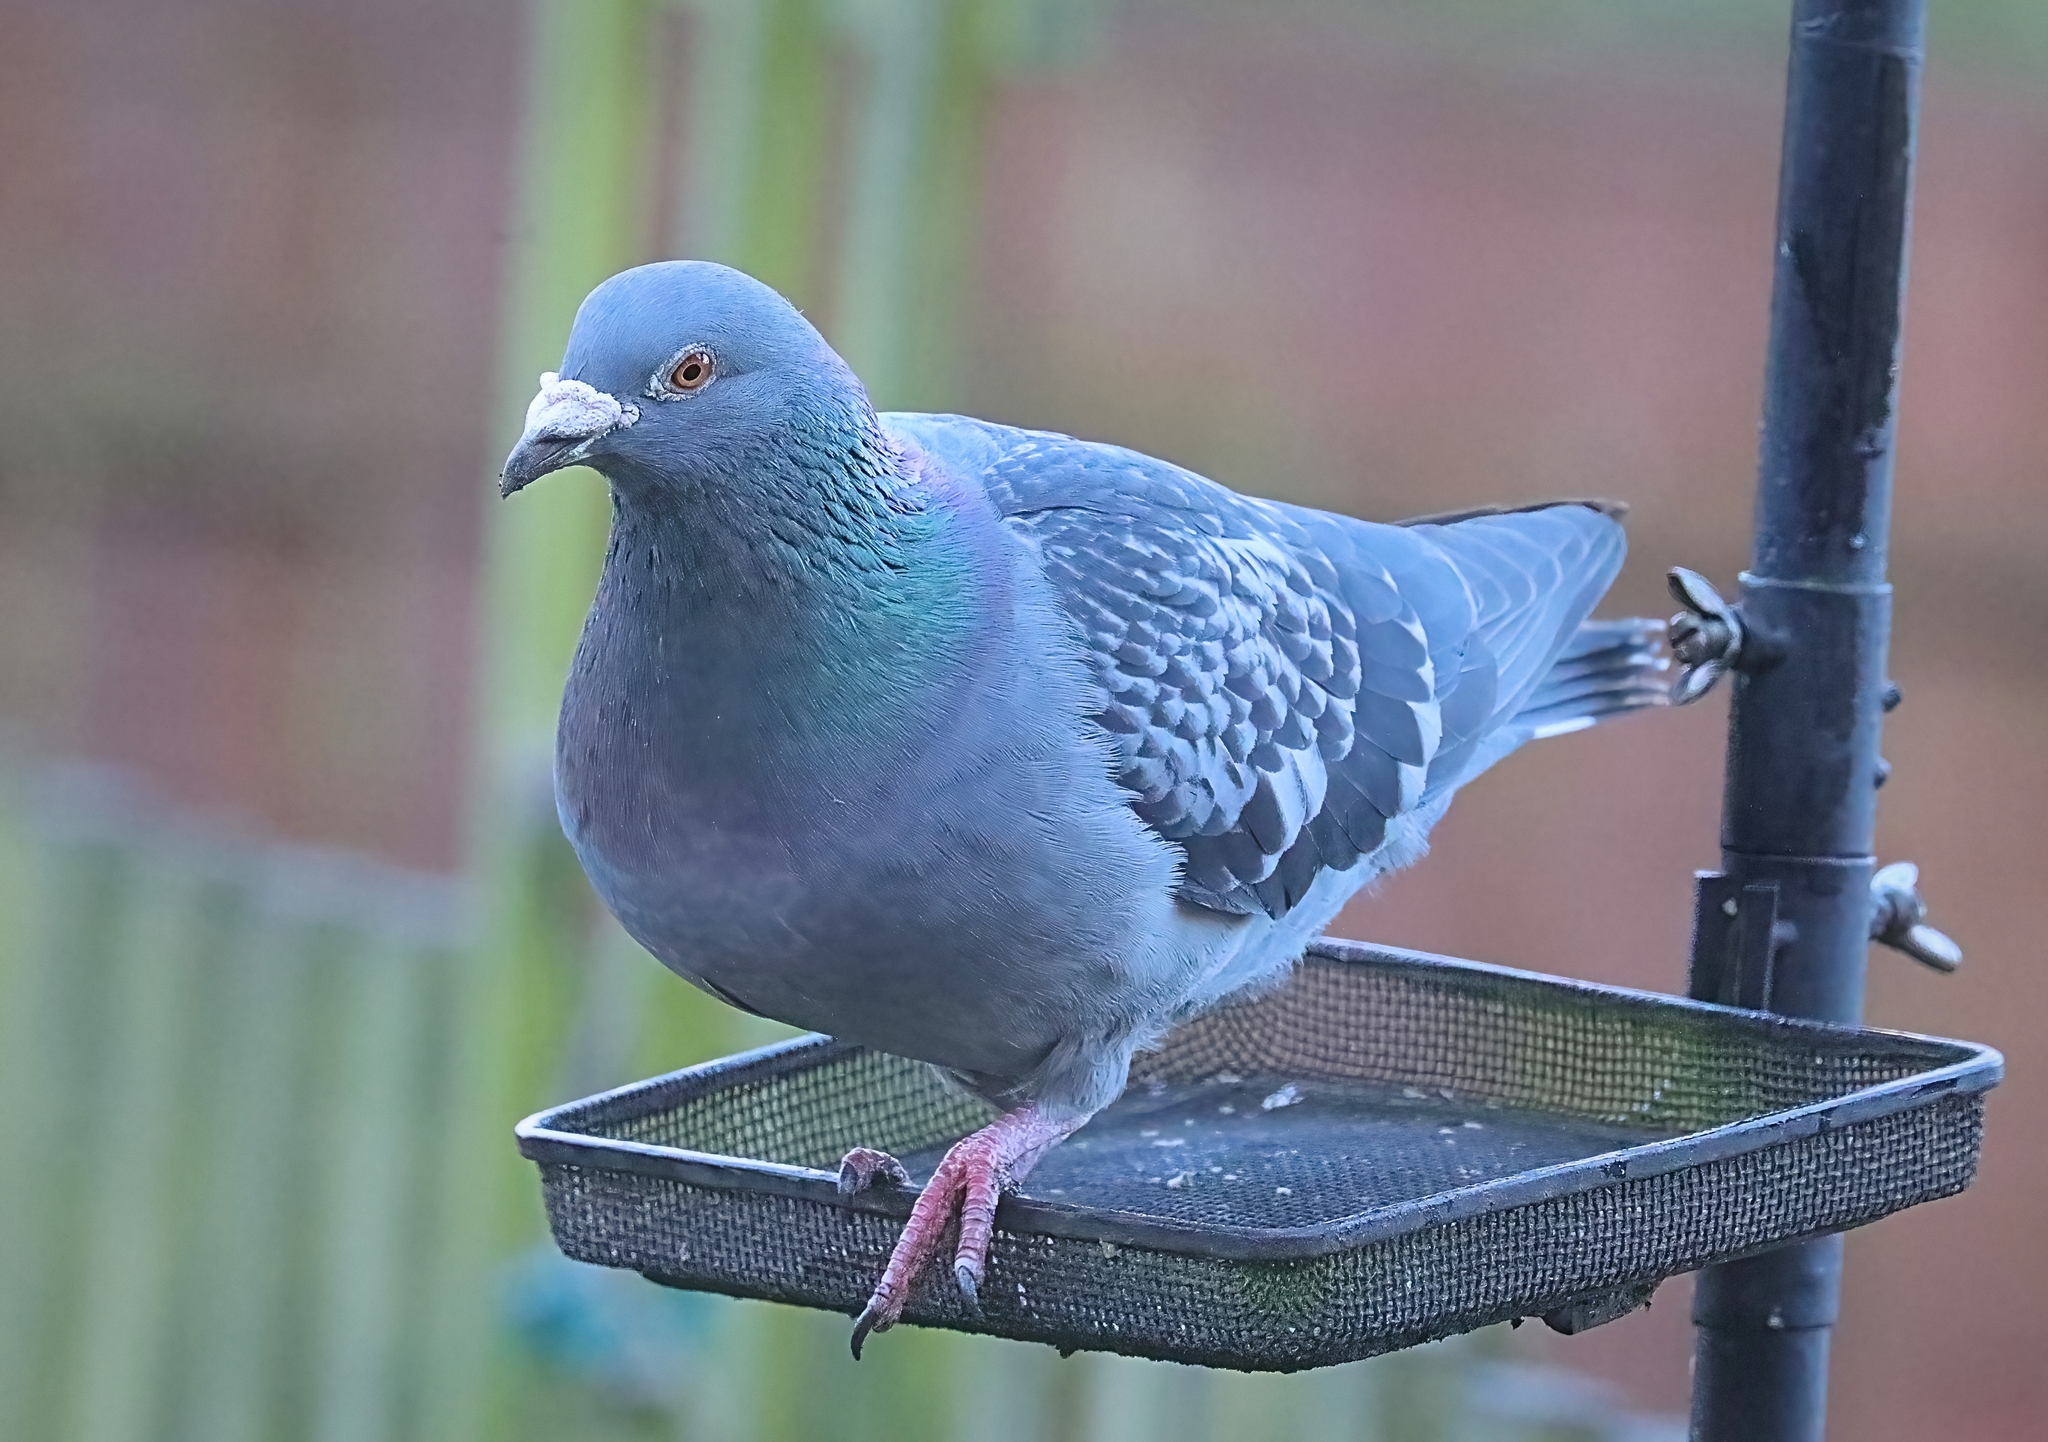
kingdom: Animalia
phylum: Chordata
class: Aves
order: Columbiformes
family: Columbidae
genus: Columba
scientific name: Columba livia
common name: Rock pigeon
